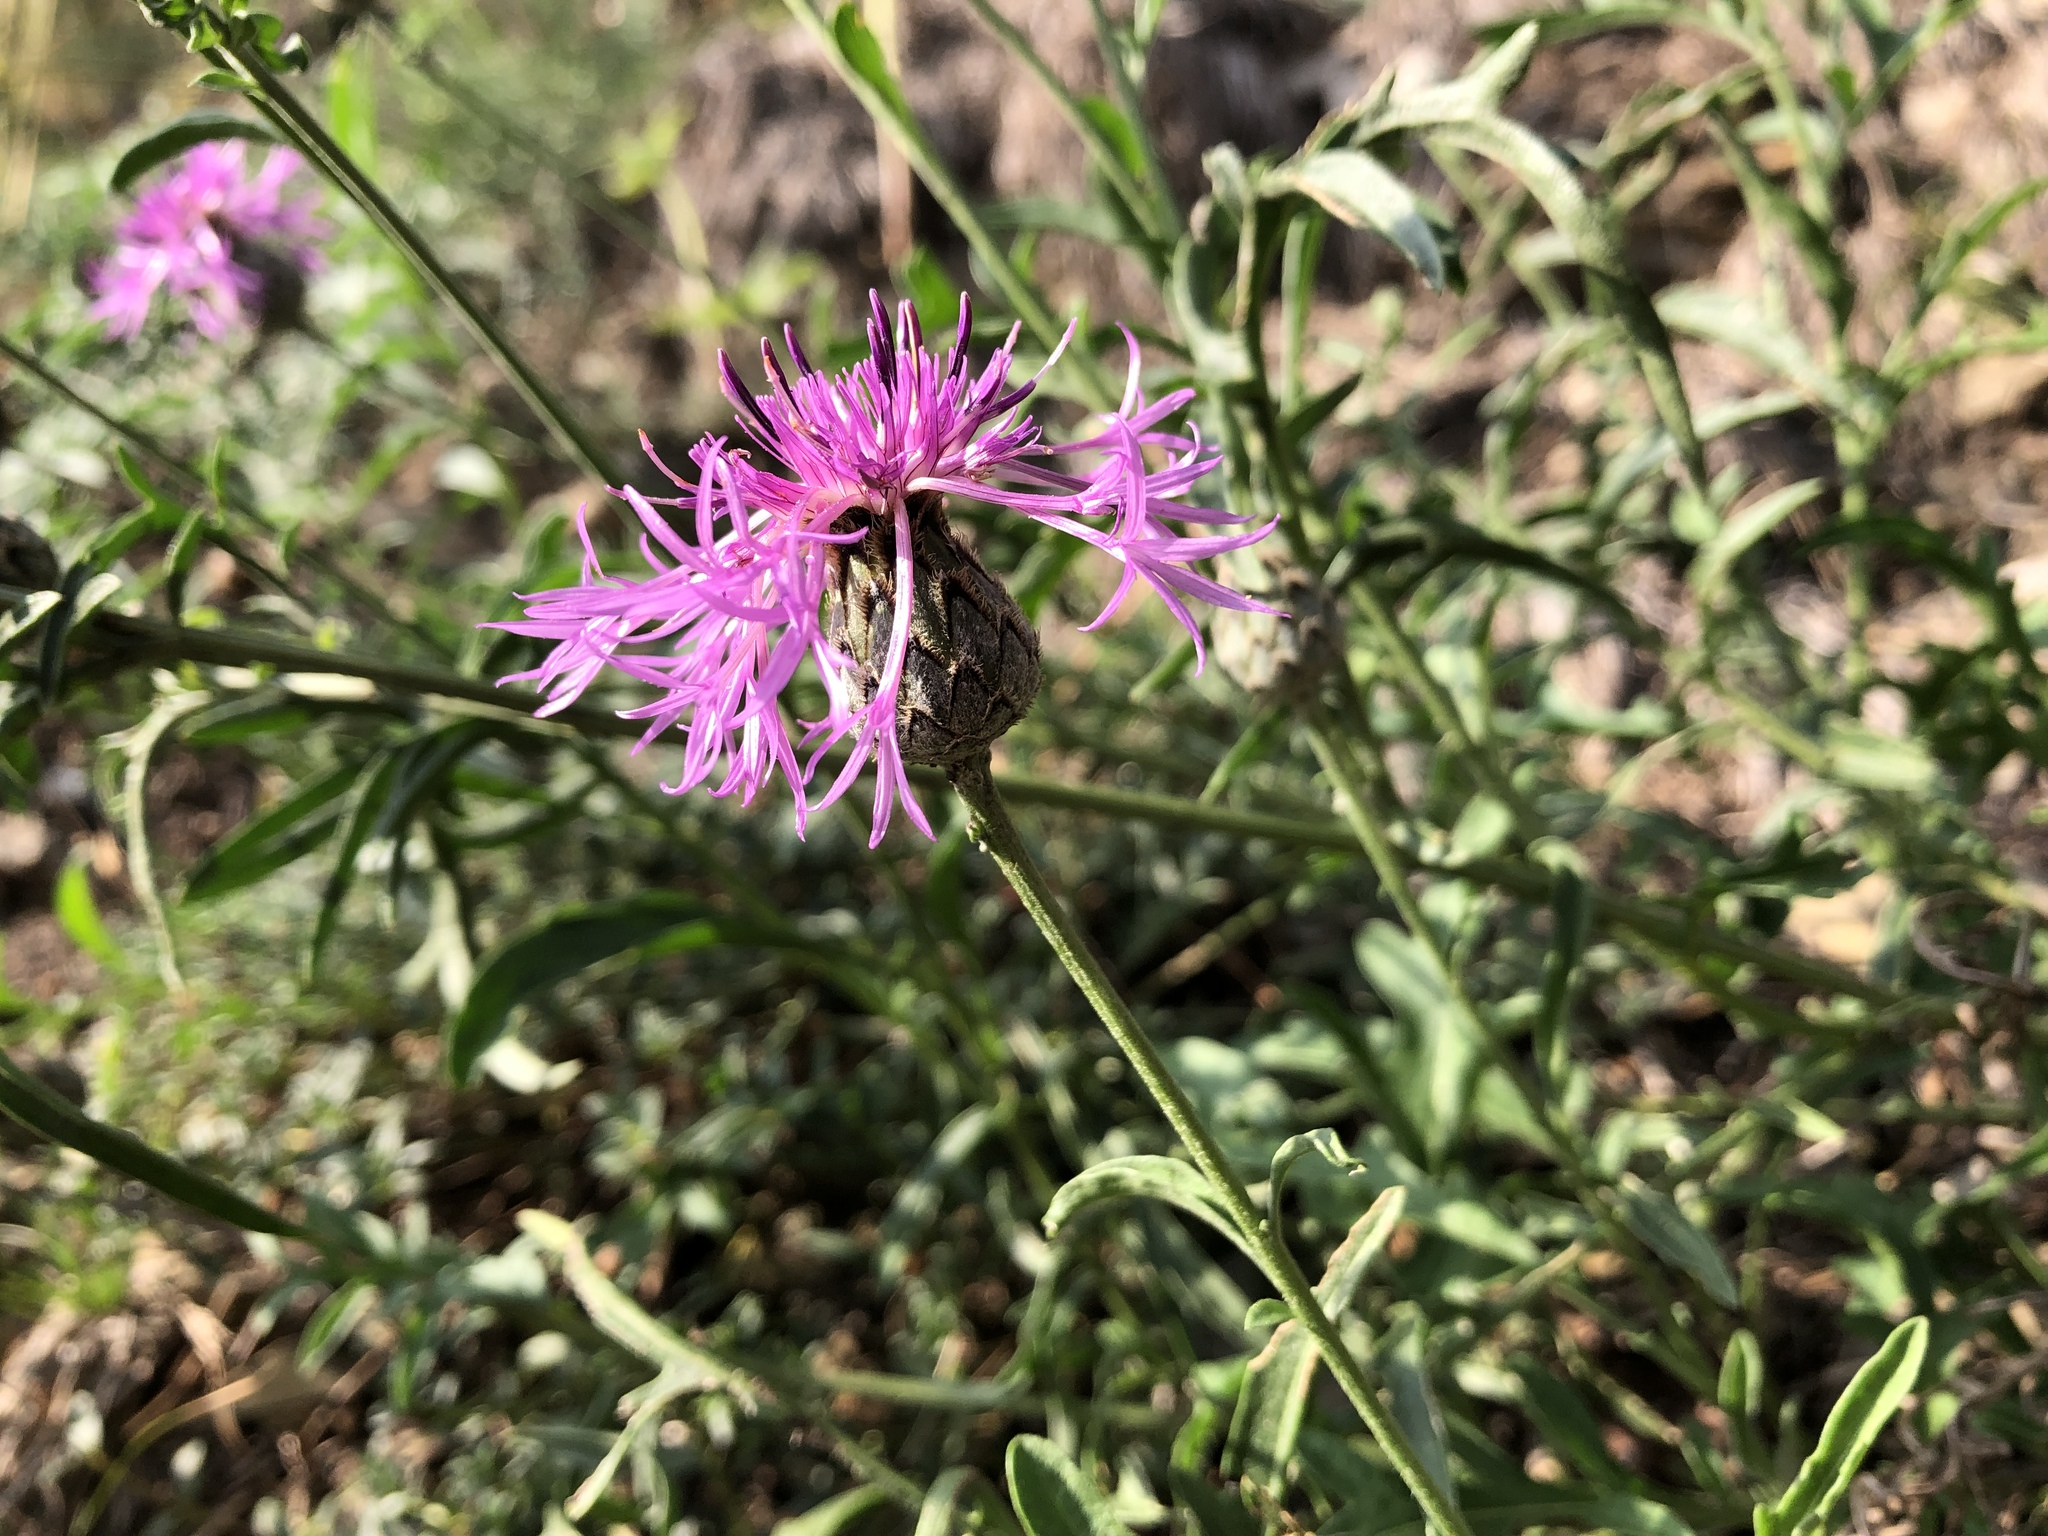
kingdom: Plantae
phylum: Tracheophyta
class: Magnoliopsida
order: Asterales
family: Asteraceae
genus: Centaurea
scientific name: Centaurea scabiosa
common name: Greater knapweed
